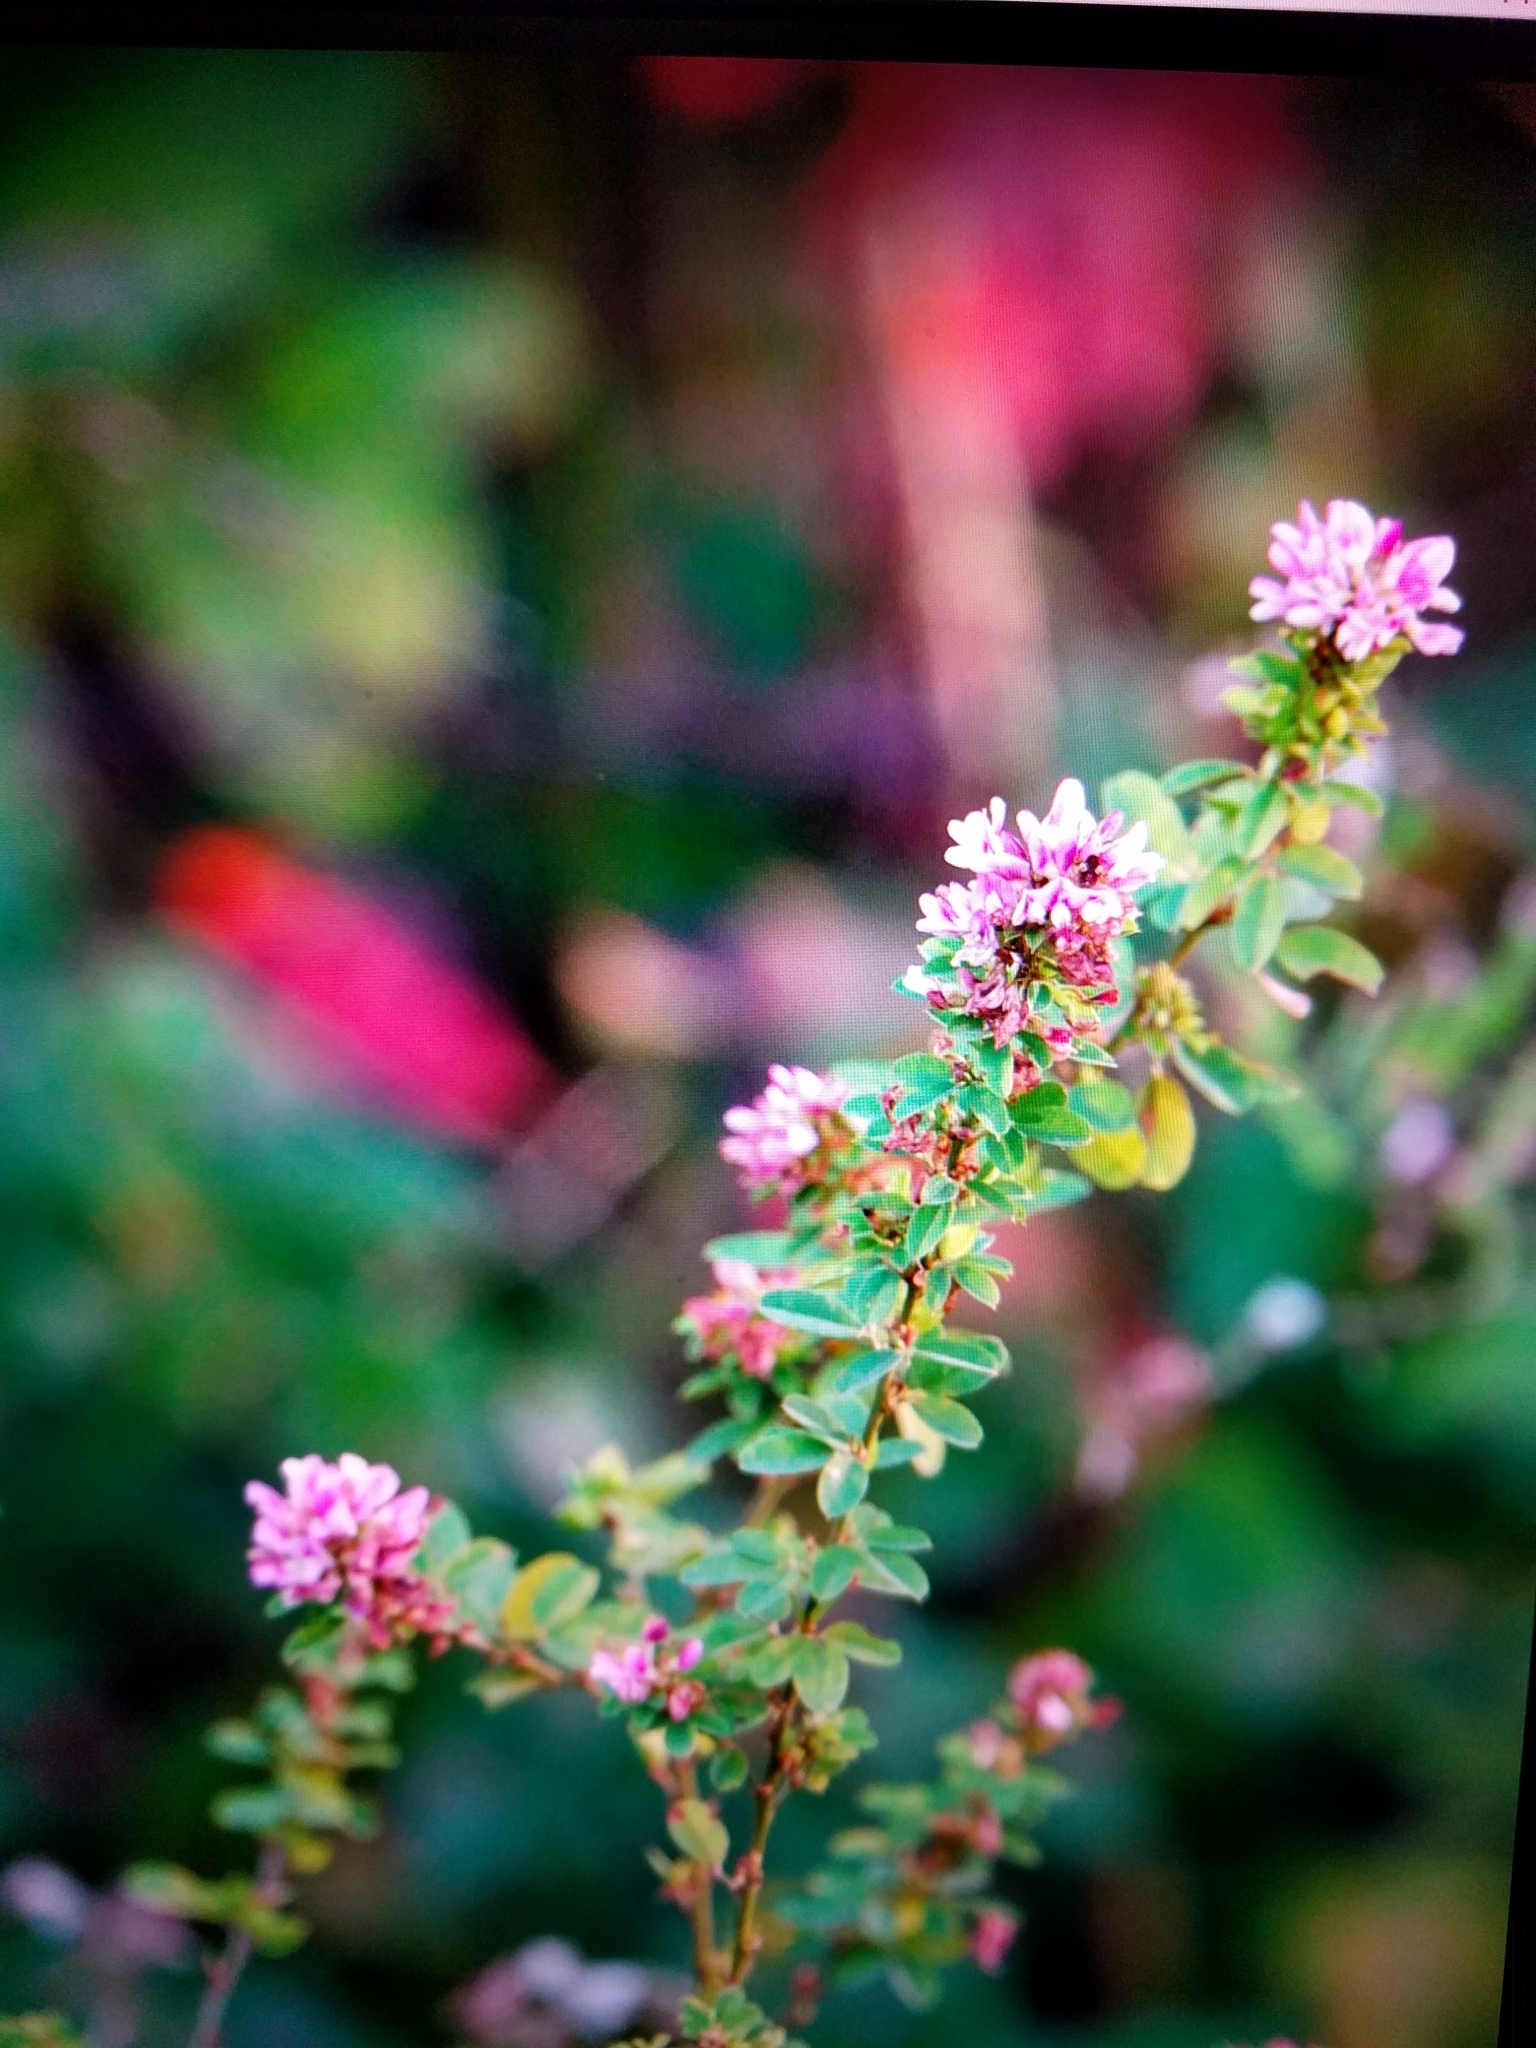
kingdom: Plantae
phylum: Tracheophyta
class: Magnoliopsida
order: Fabales
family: Fabaceae
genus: Lespedeza
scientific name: Lespedeza virginica
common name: Slender bush-clover
